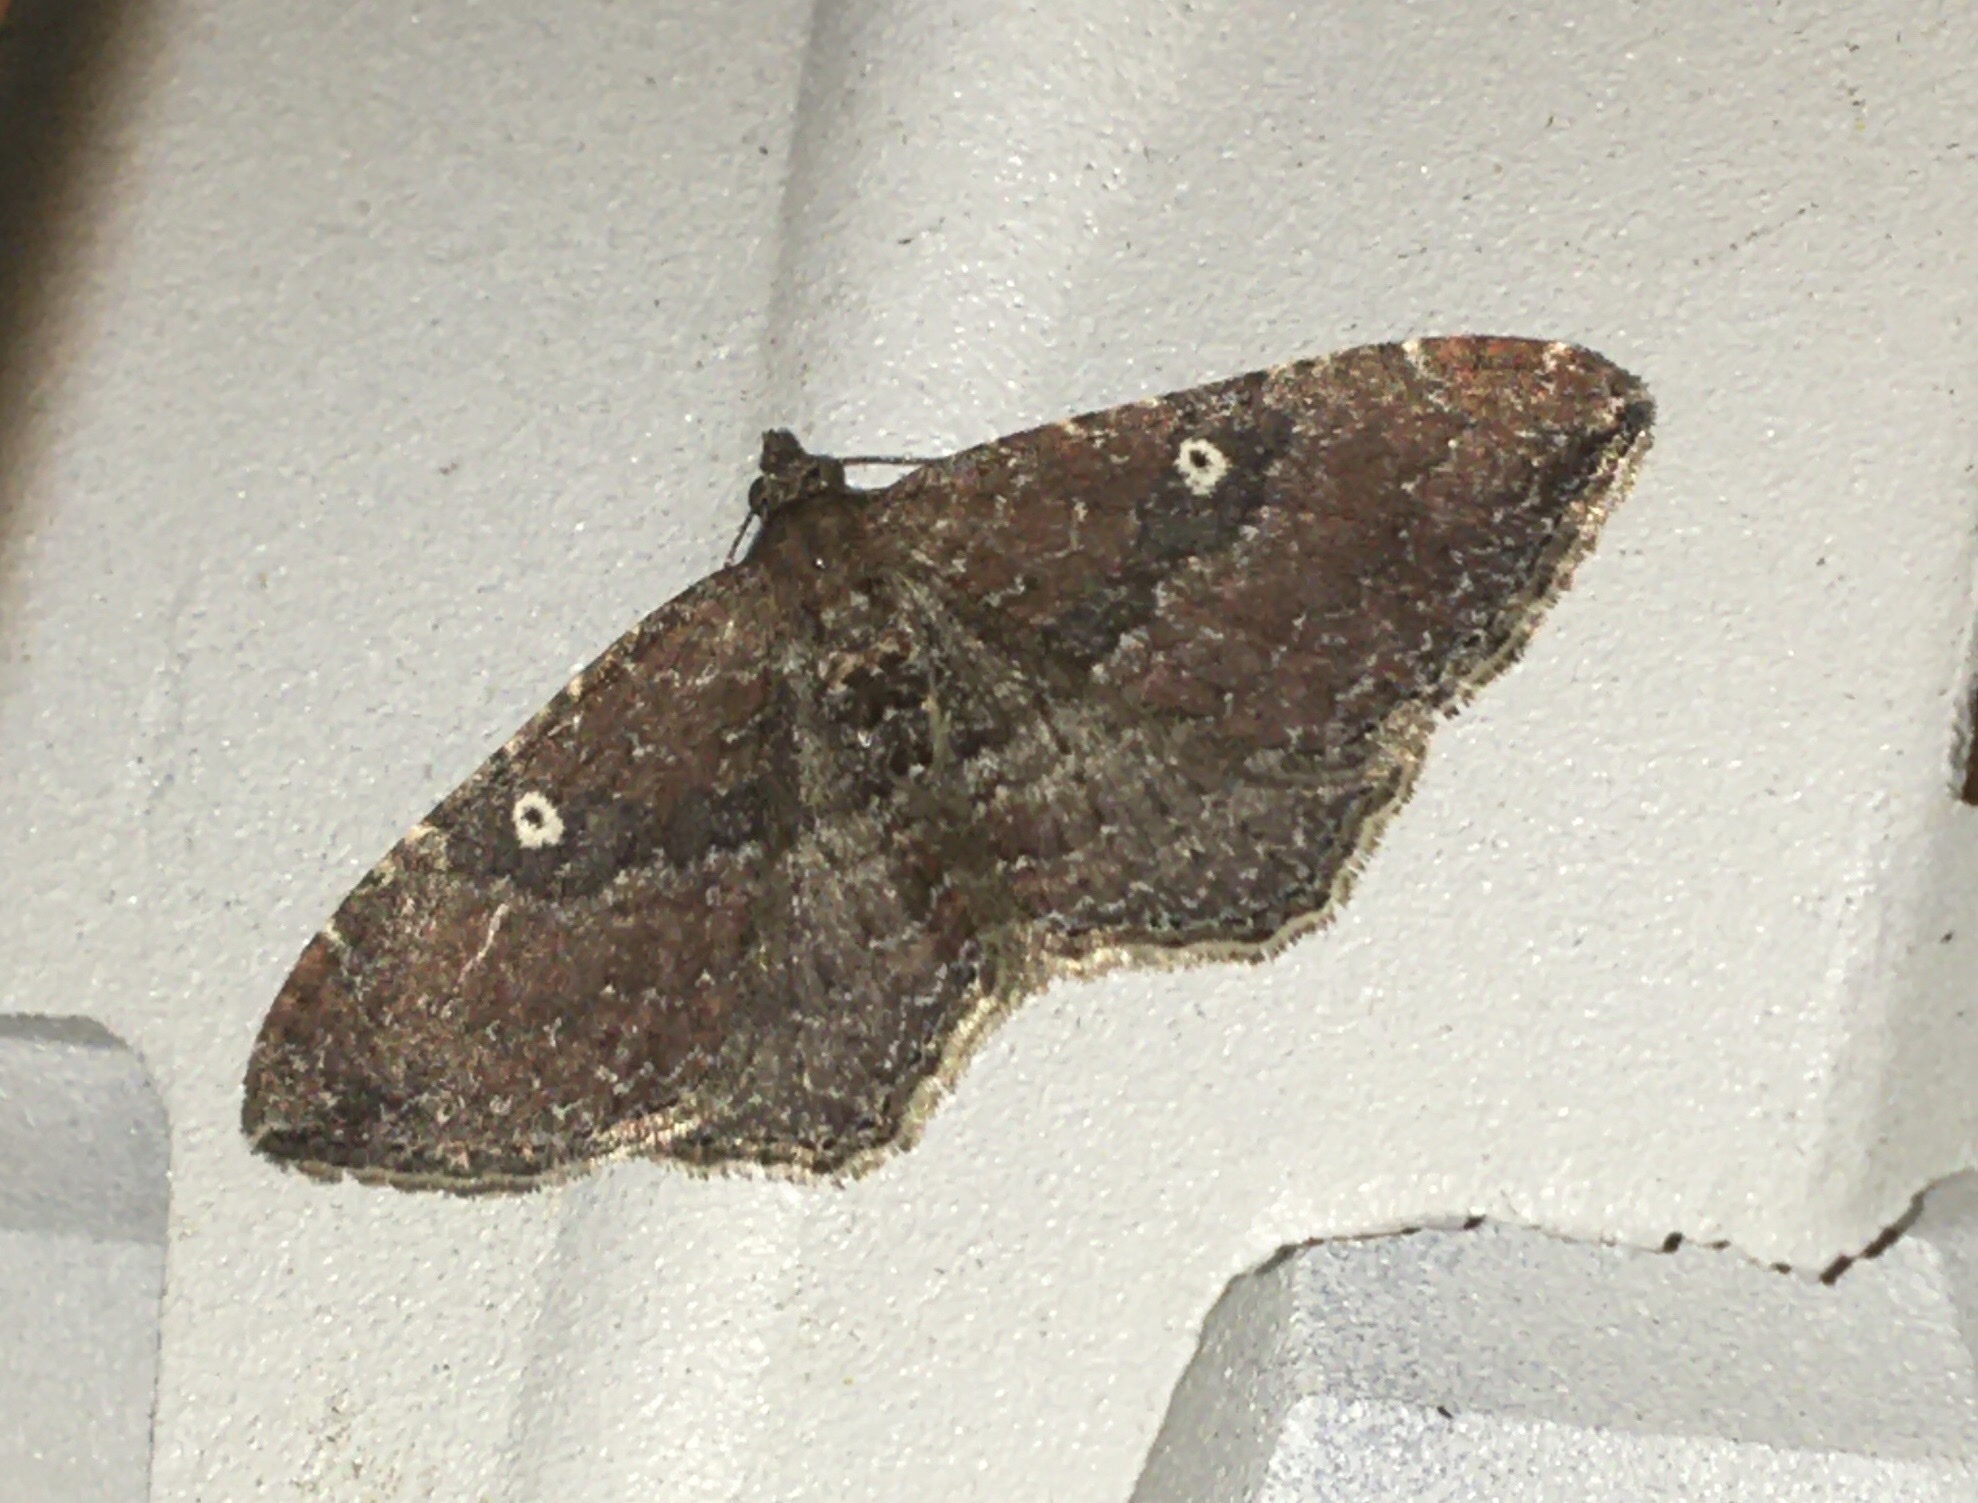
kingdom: Animalia
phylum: Arthropoda
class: Insecta
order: Lepidoptera
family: Geometridae
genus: Orthonama
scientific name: Orthonama obstipata
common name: The gem
